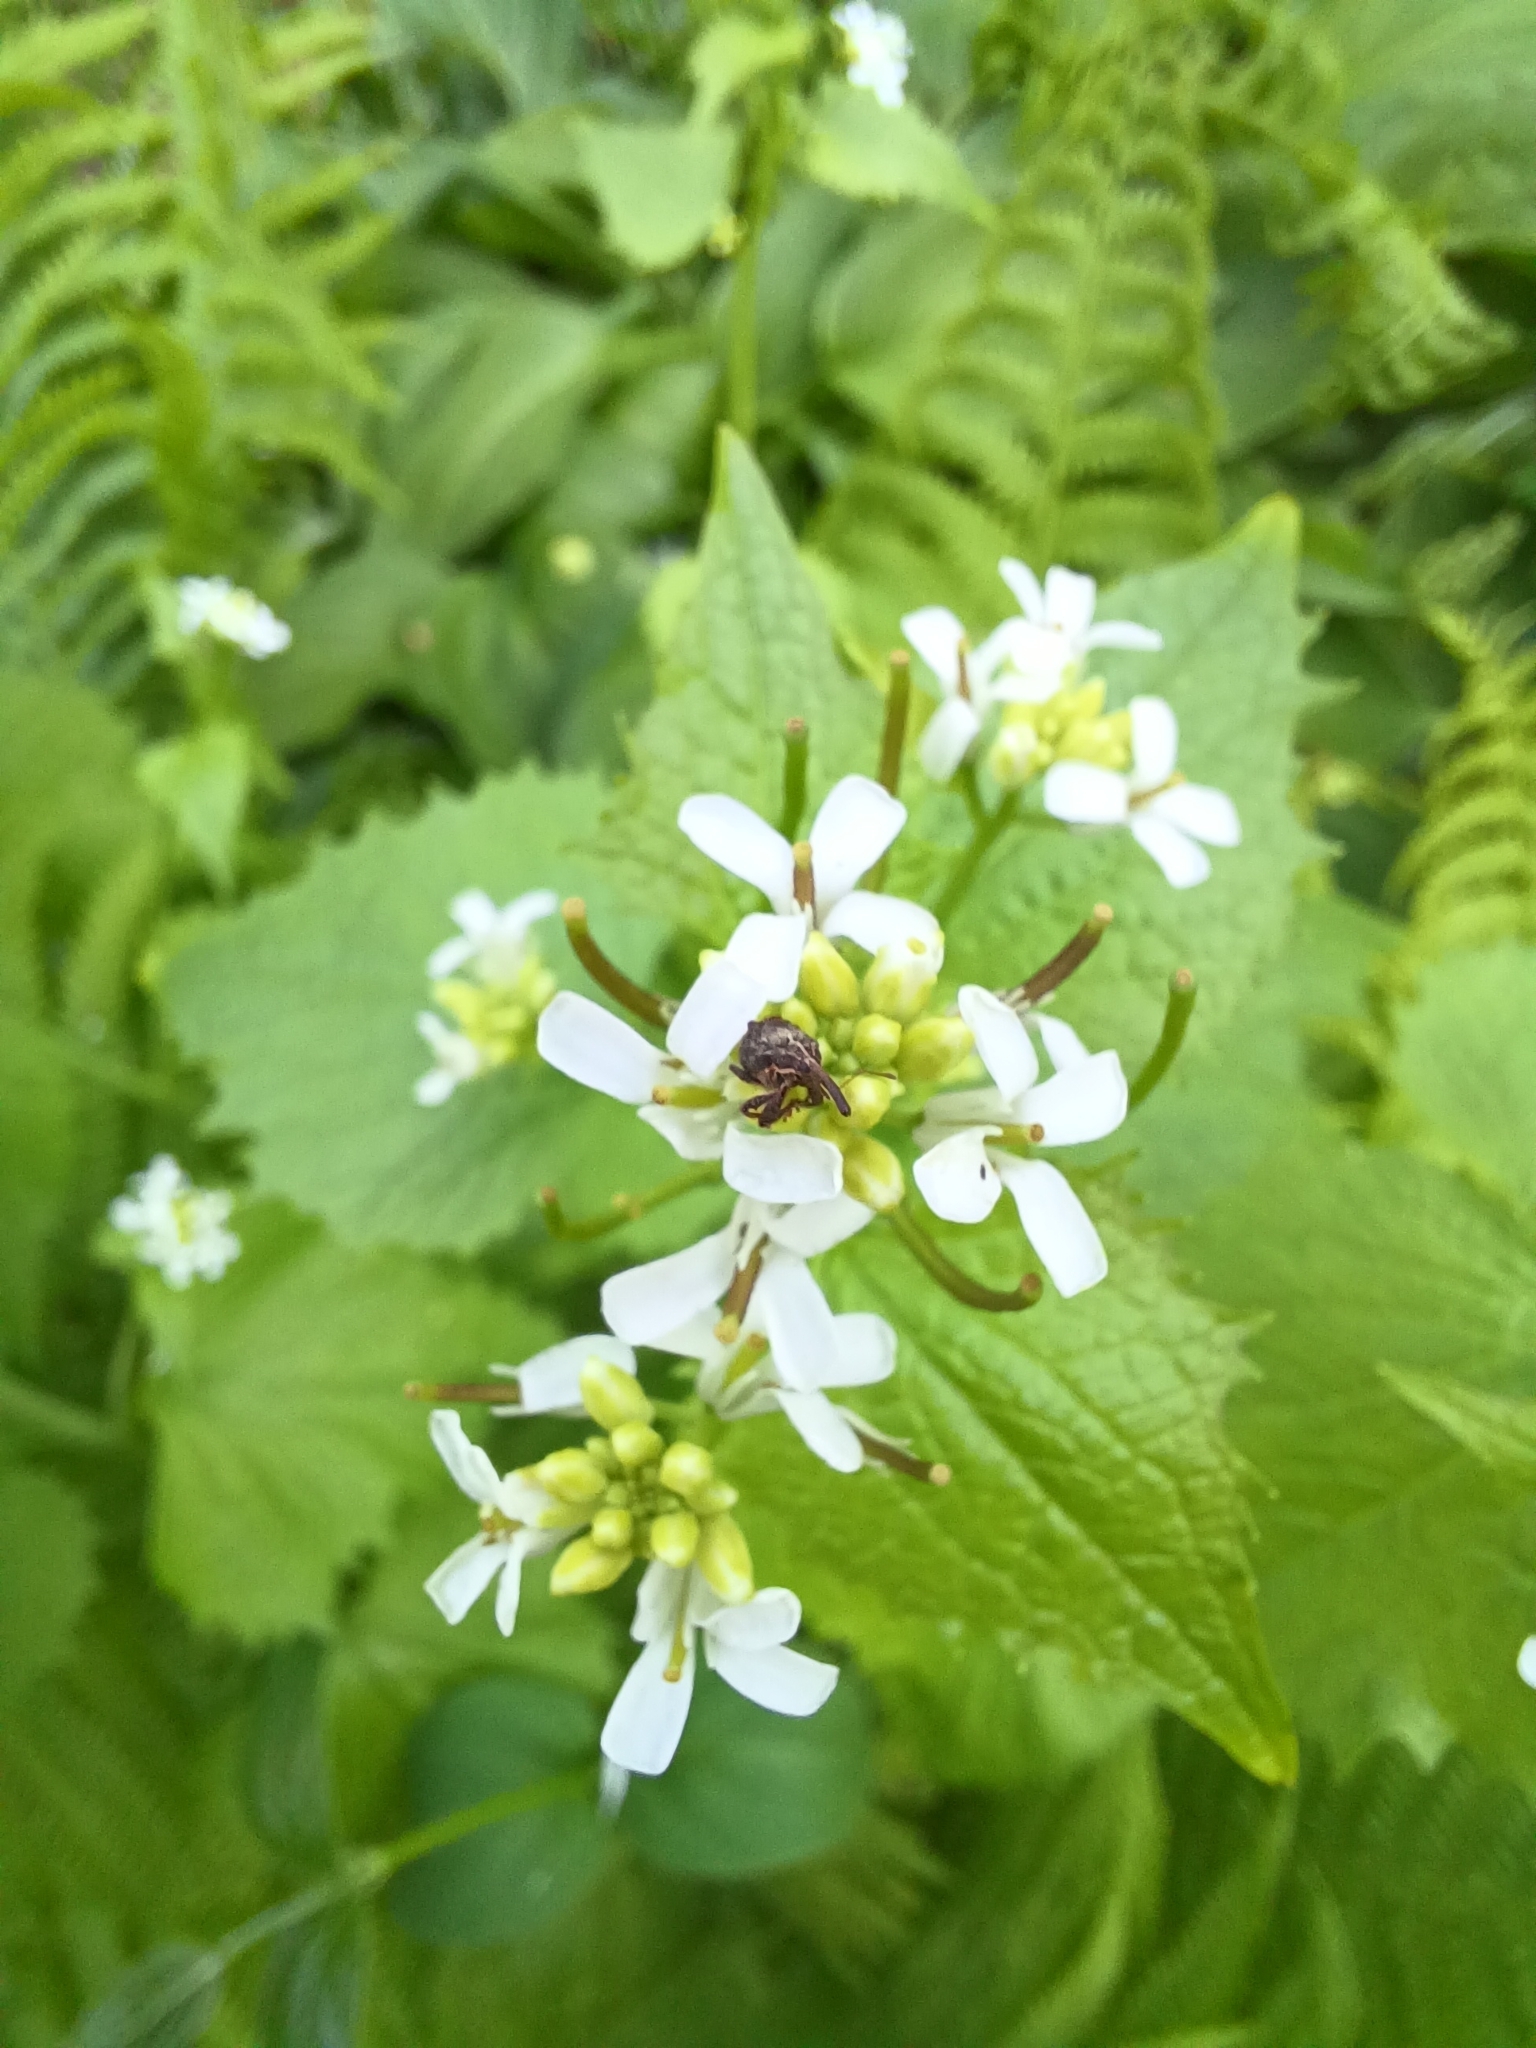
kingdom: Animalia
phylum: Arthropoda
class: Insecta
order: Coleoptera
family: Curculionidae
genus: Anthonomus
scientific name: Anthonomus quadrigibbus
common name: Apple curculio
